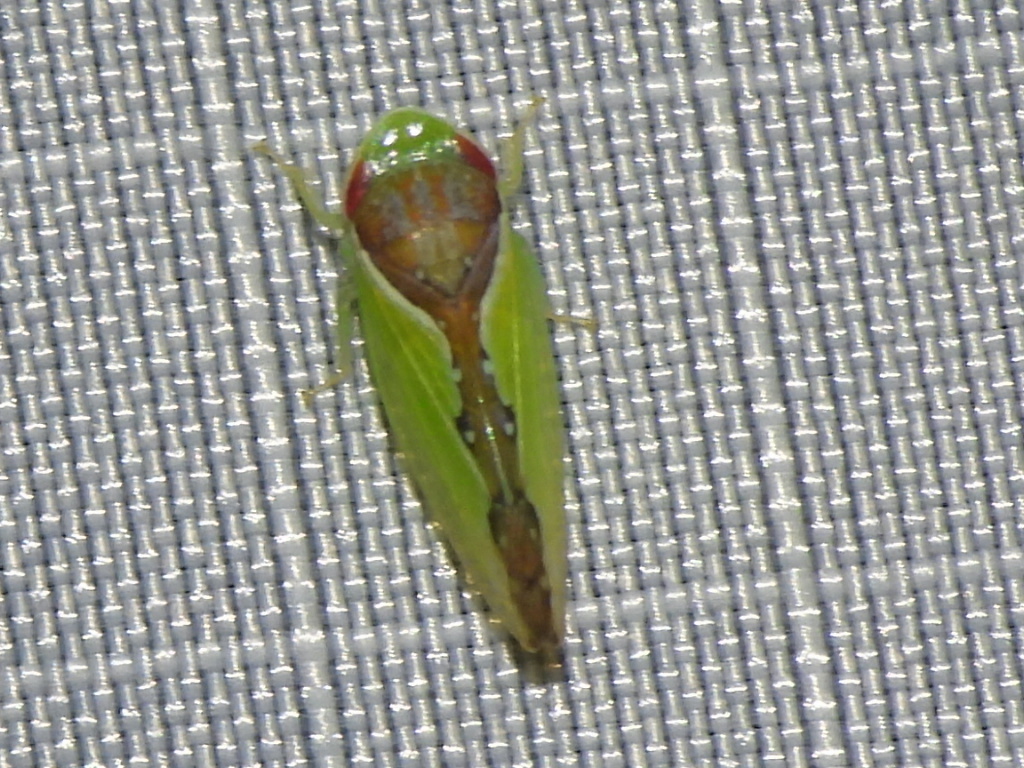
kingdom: Animalia
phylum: Arthropoda
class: Insecta
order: Hemiptera
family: Cicadellidae
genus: Omansobara ing
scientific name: Omansobara ing Omansobara palliolata
